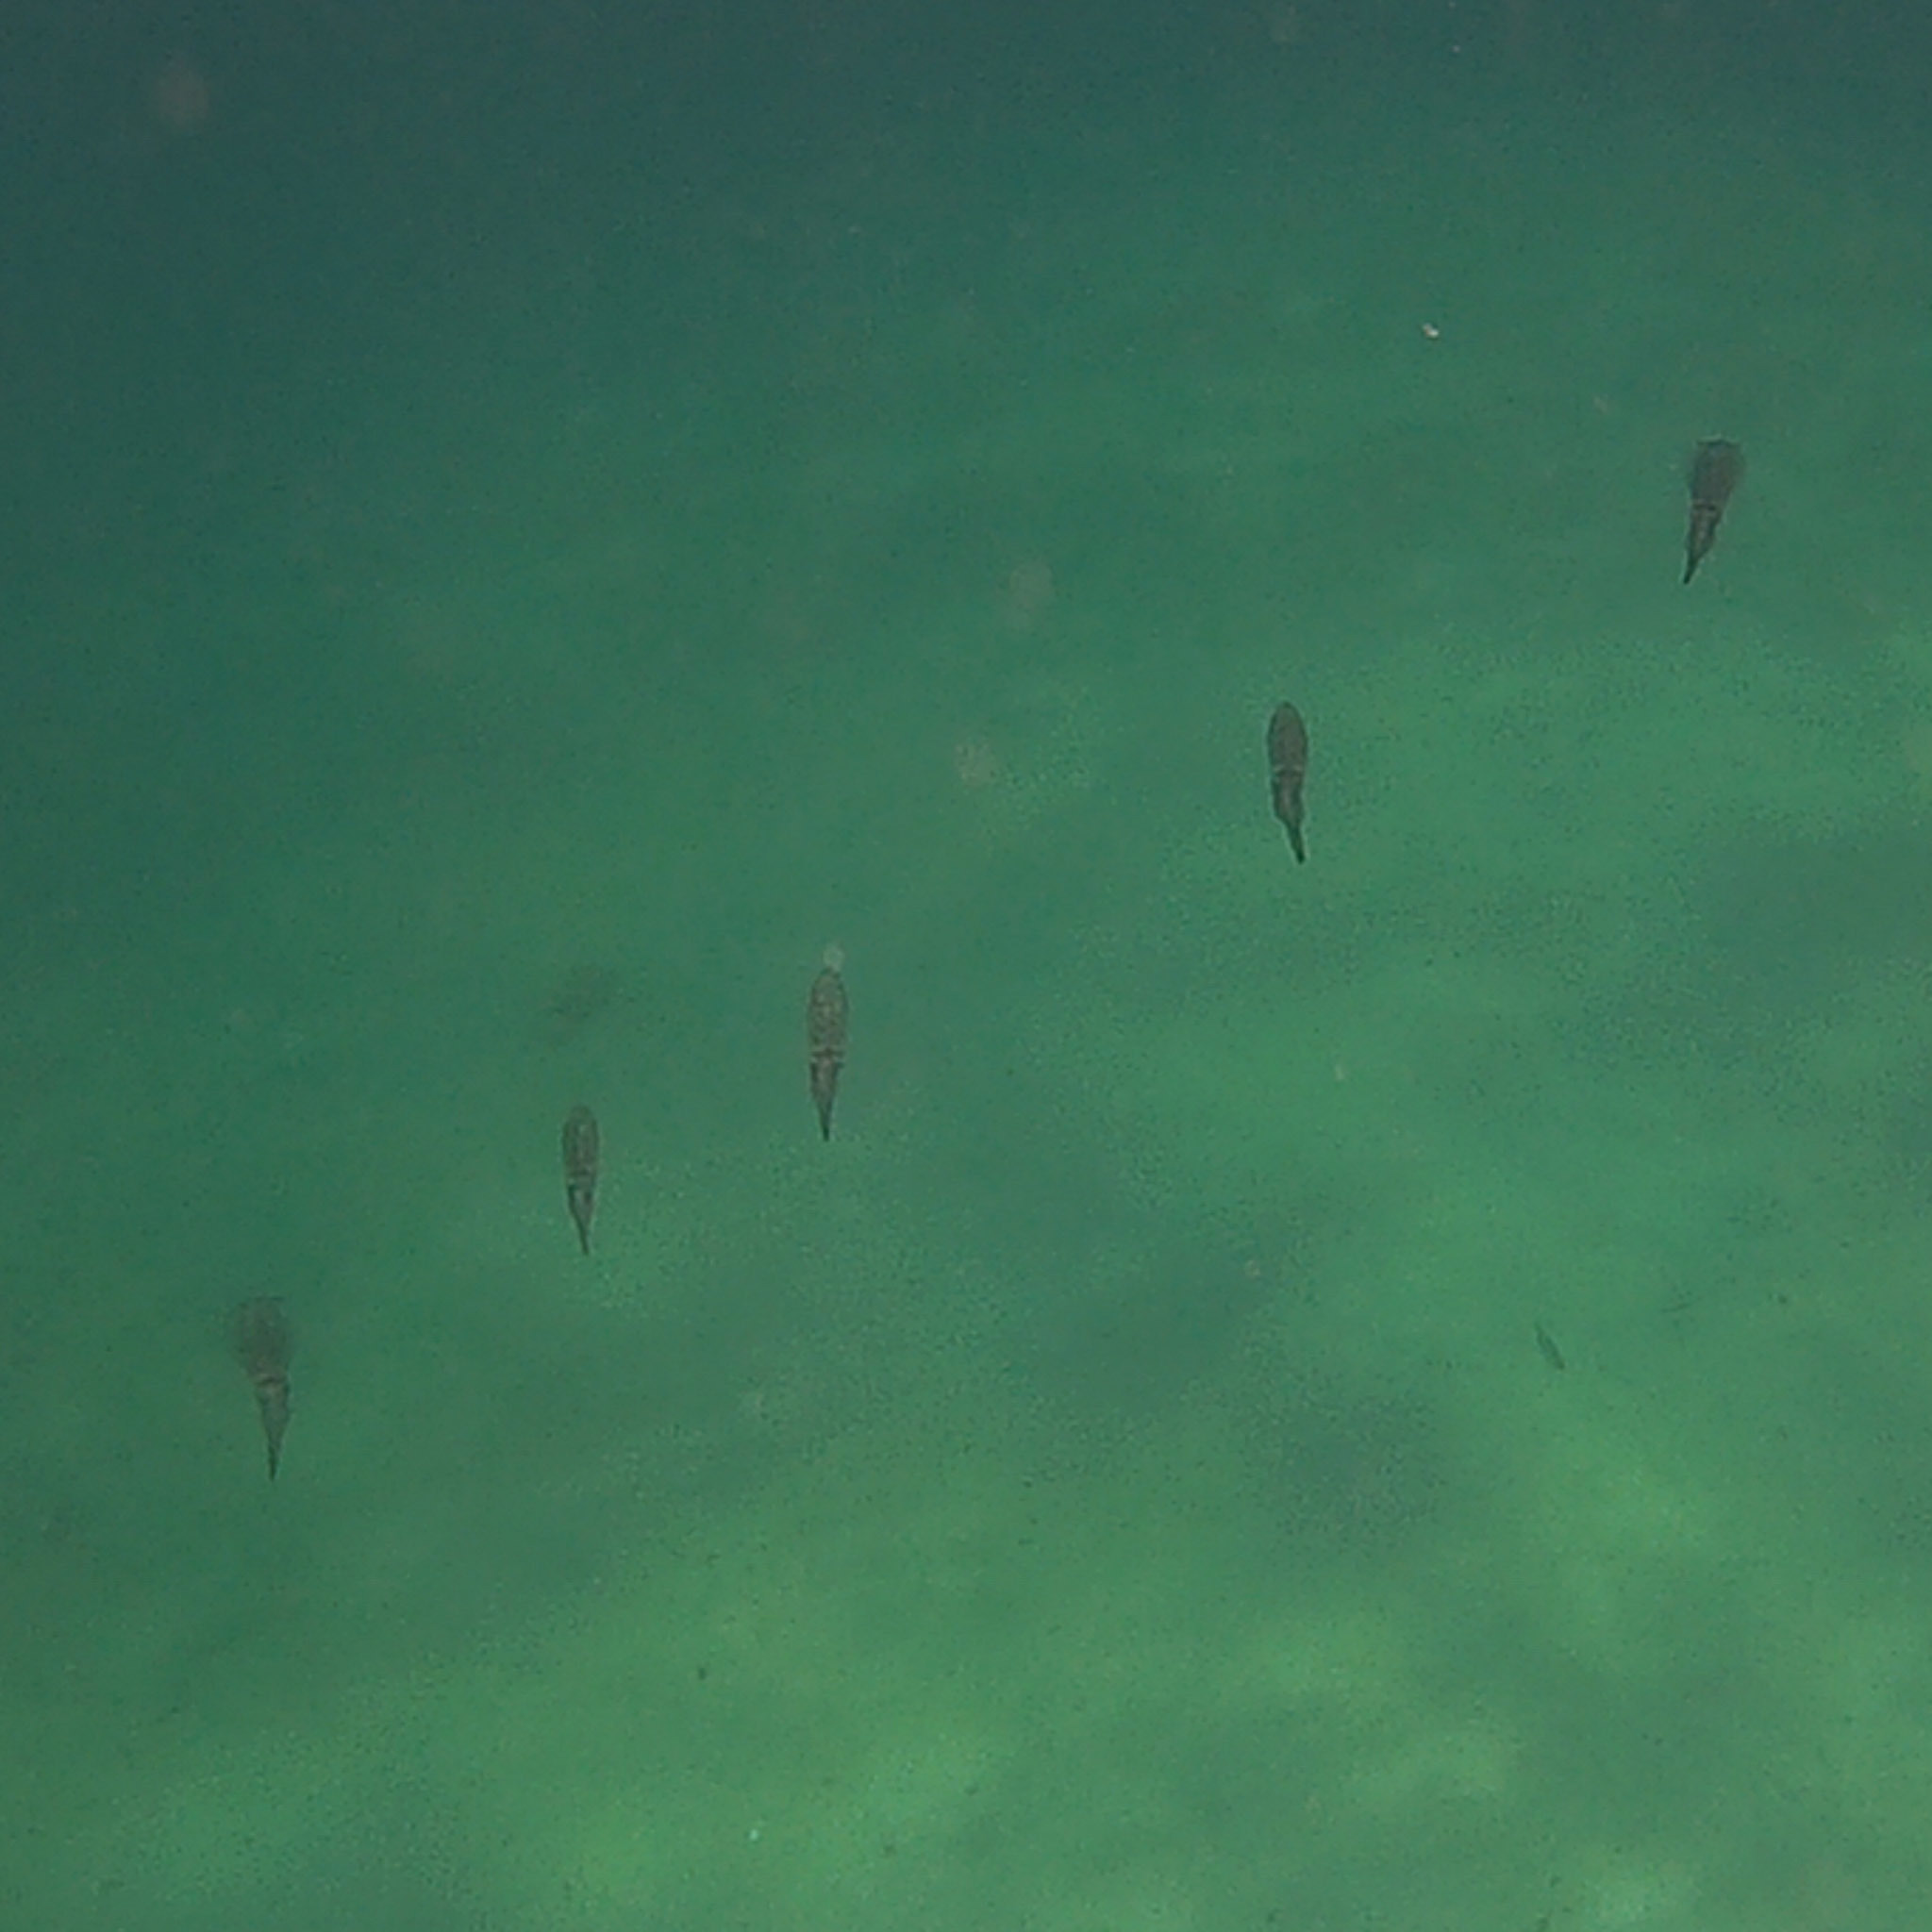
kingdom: Animalia
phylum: Mollusca
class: Cephalopoda
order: Myopsida
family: Loliginidae
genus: Sepioteuthis
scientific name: Sepioteuthis lessoniana
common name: Bigfin reef squid
